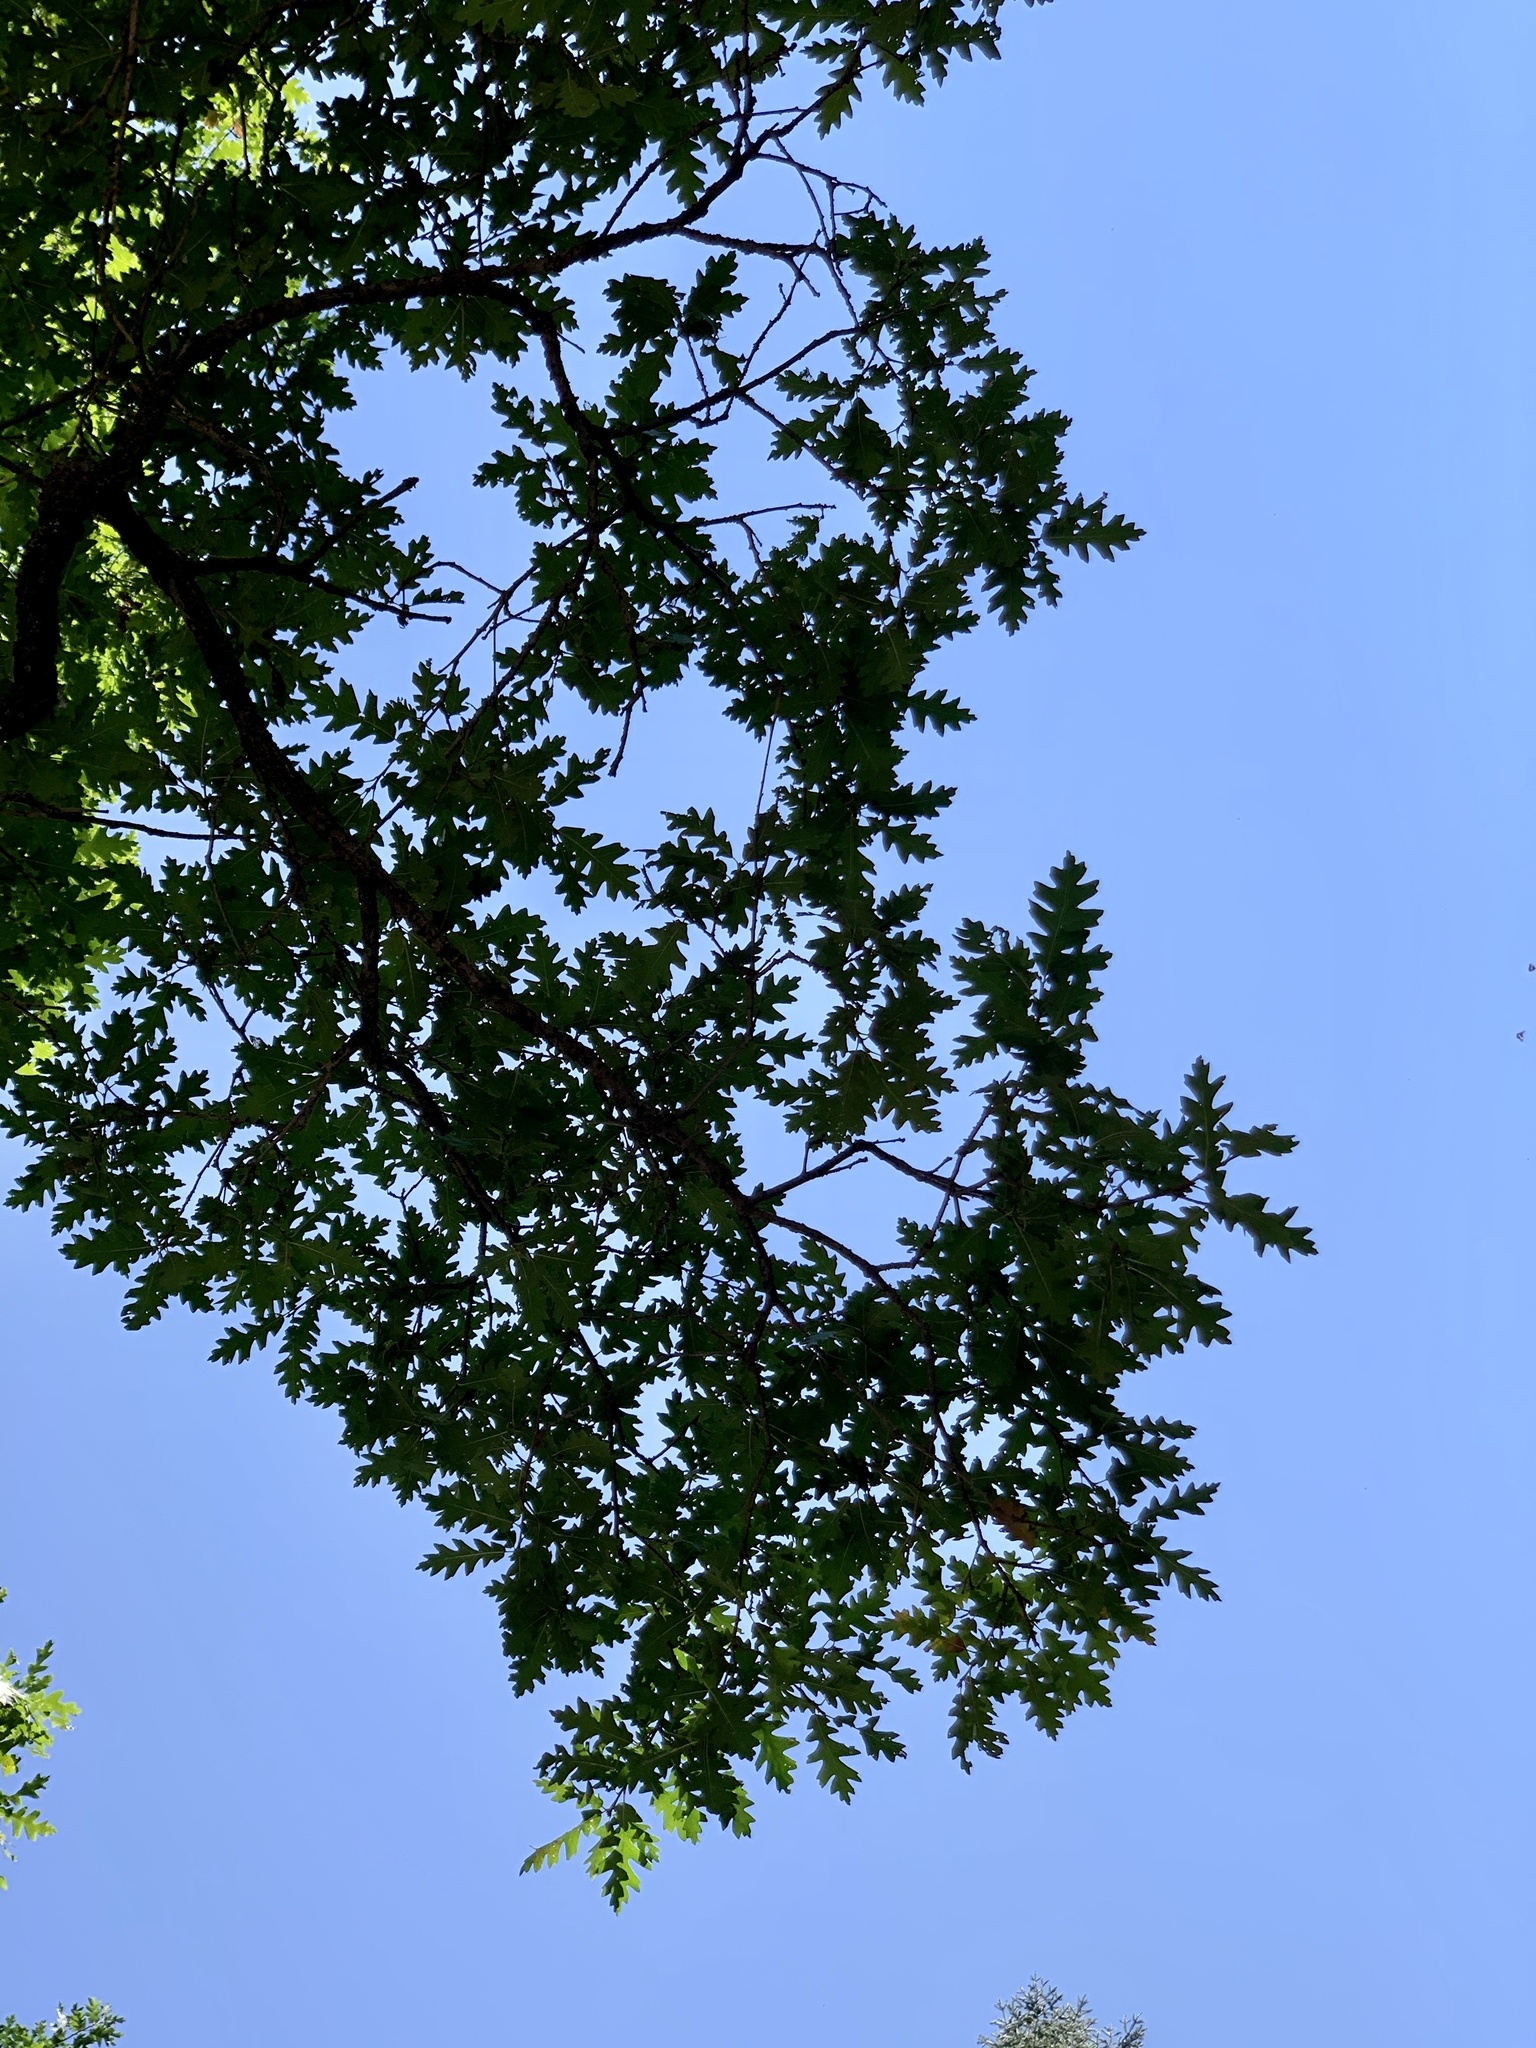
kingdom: Plantae
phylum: Tracheophyta
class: Magnoliopsida
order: Fagales
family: Fagaceae
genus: Quercus
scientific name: Quercus gambelii
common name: Gambel oak
